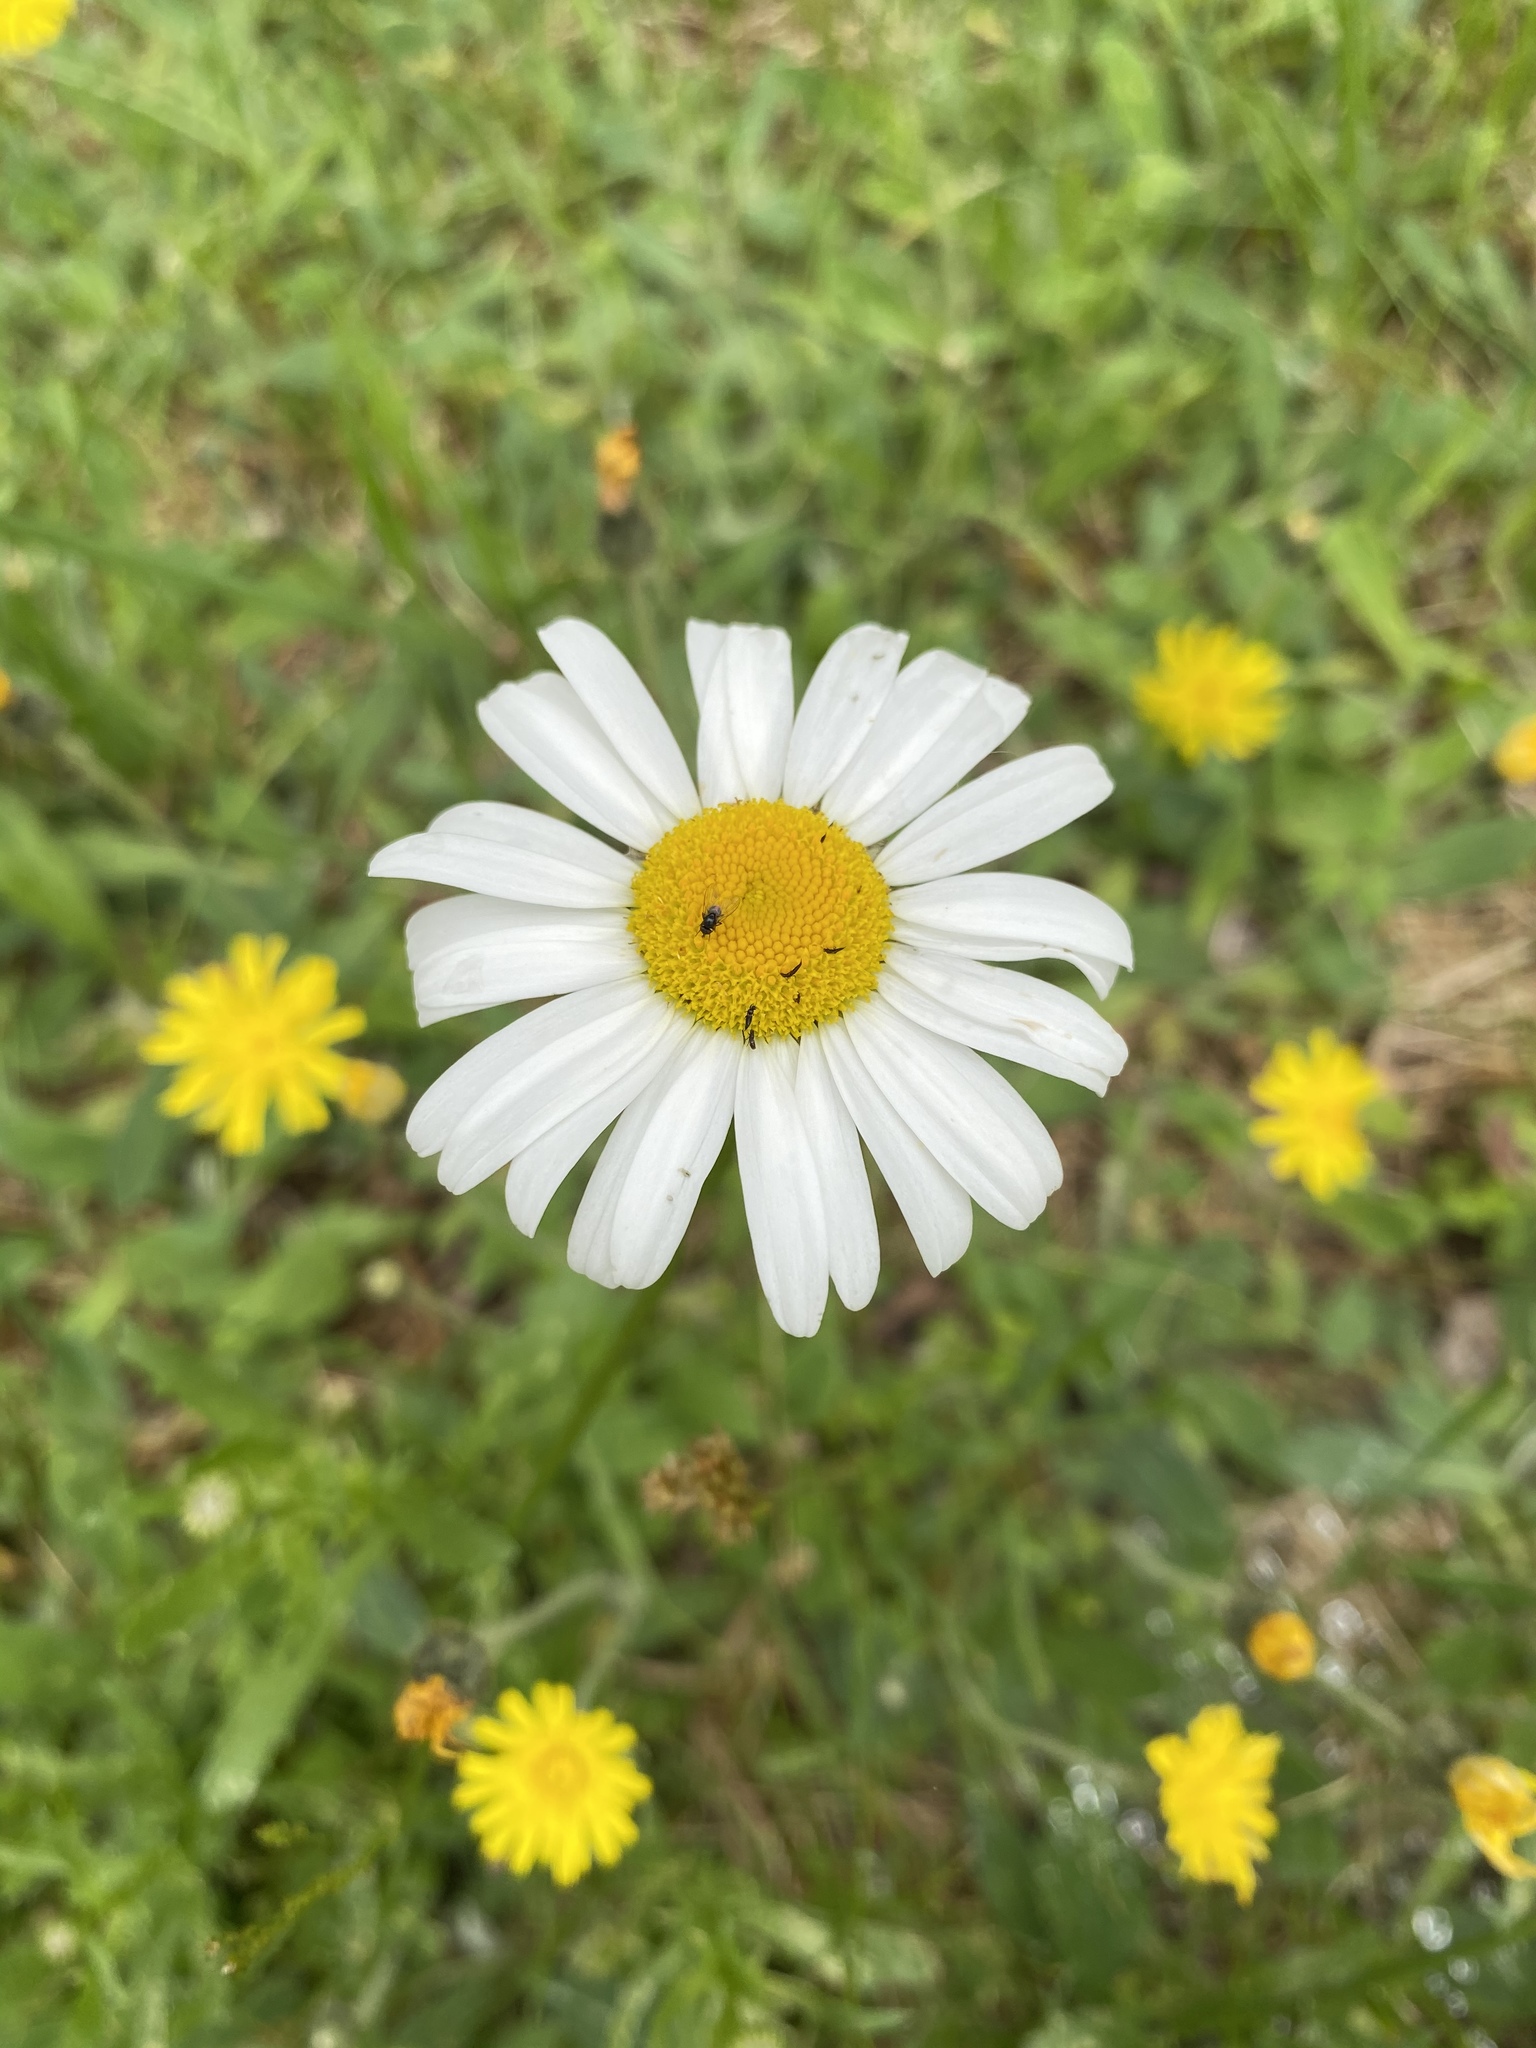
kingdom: Plantae
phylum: Tracheophyta
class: Magnoliopsida
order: Asterales
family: Asteraceae
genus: Leucanthemum
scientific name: Leucanthemum vulgare
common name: Oxeye daisy
